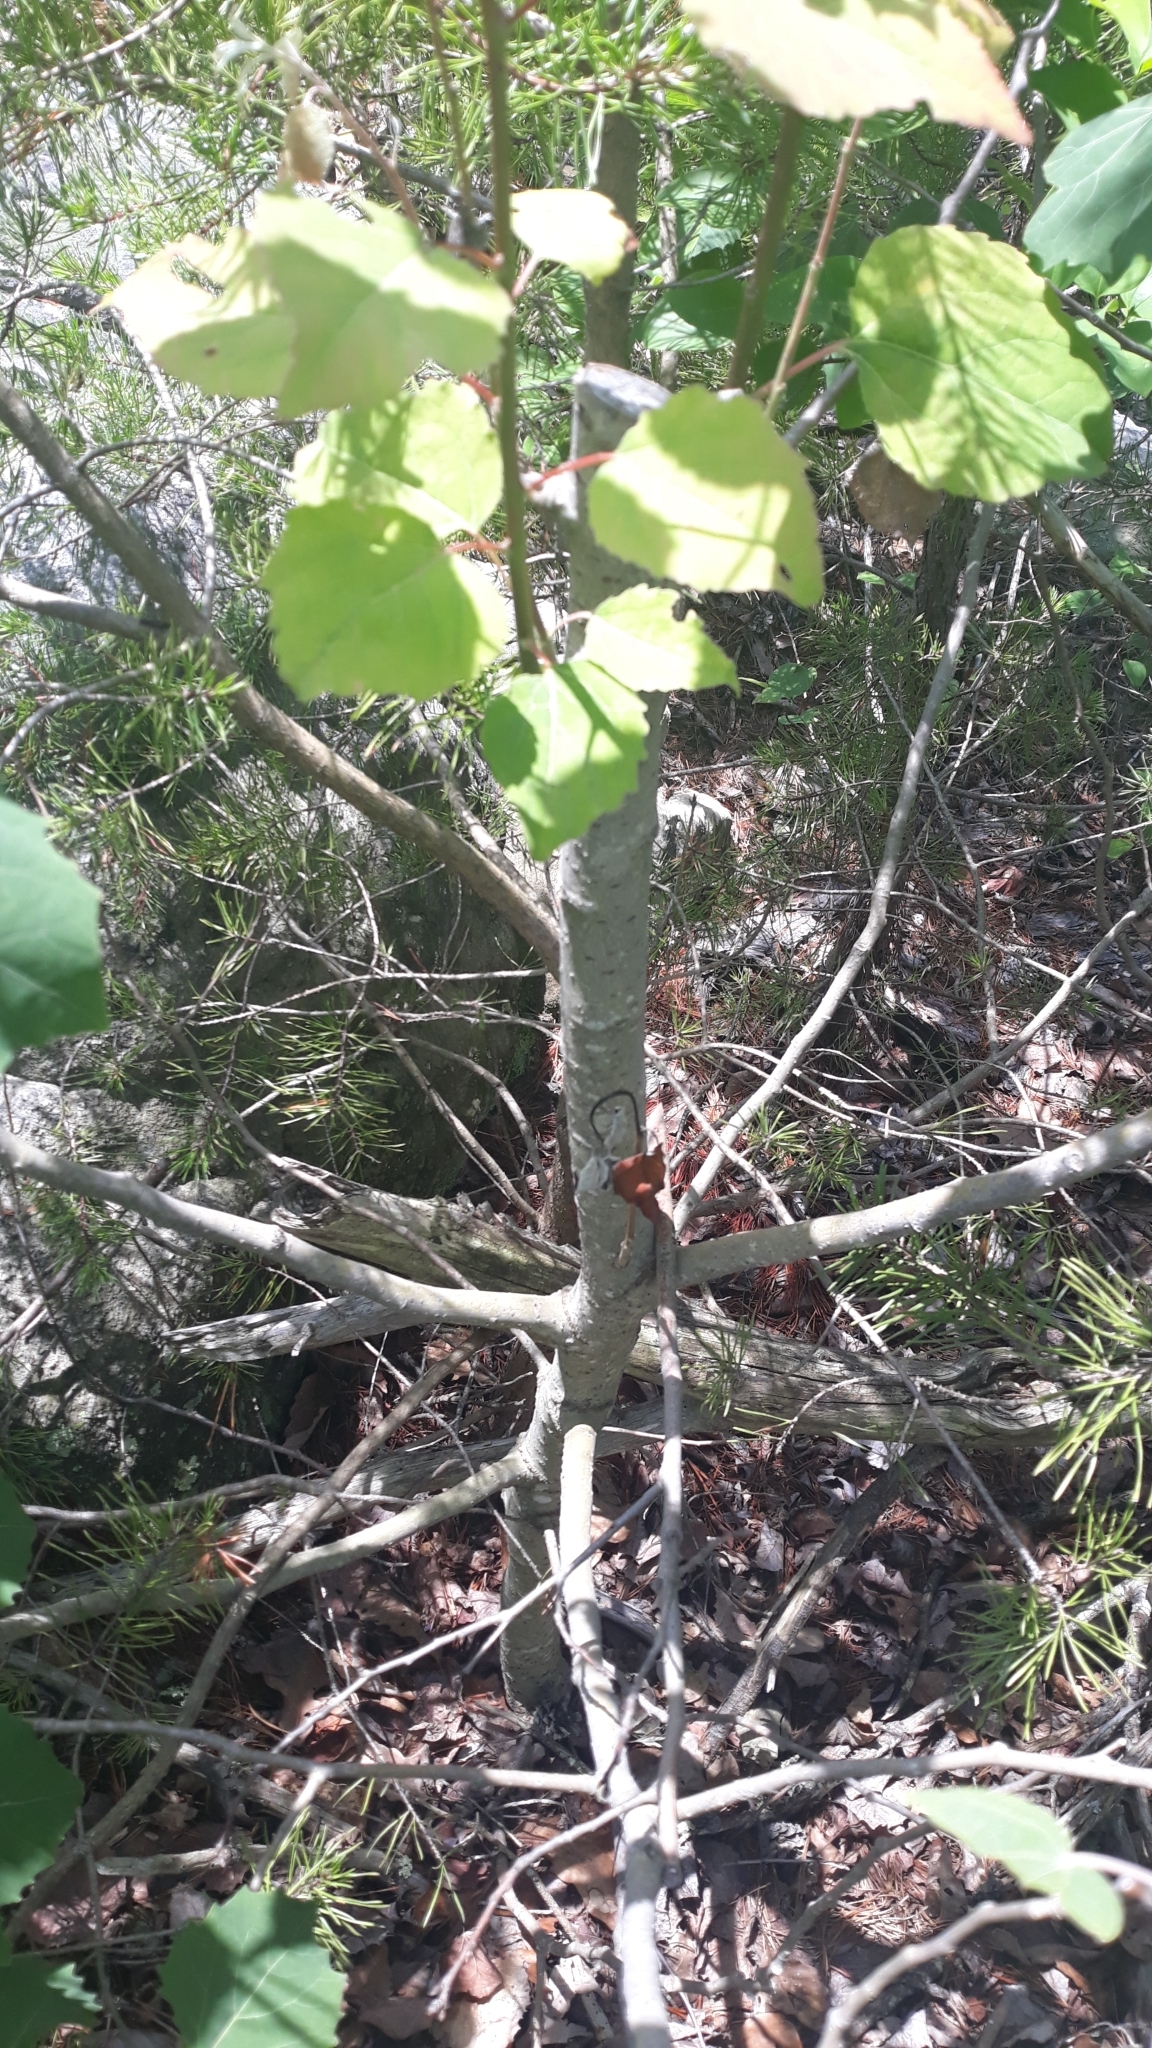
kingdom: Plantae
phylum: Tracheophyta
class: Magnoliopsida
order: Malpighiales
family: Salicaceae
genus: Populus
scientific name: Populus grandidentata
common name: Bigtooth aspen
